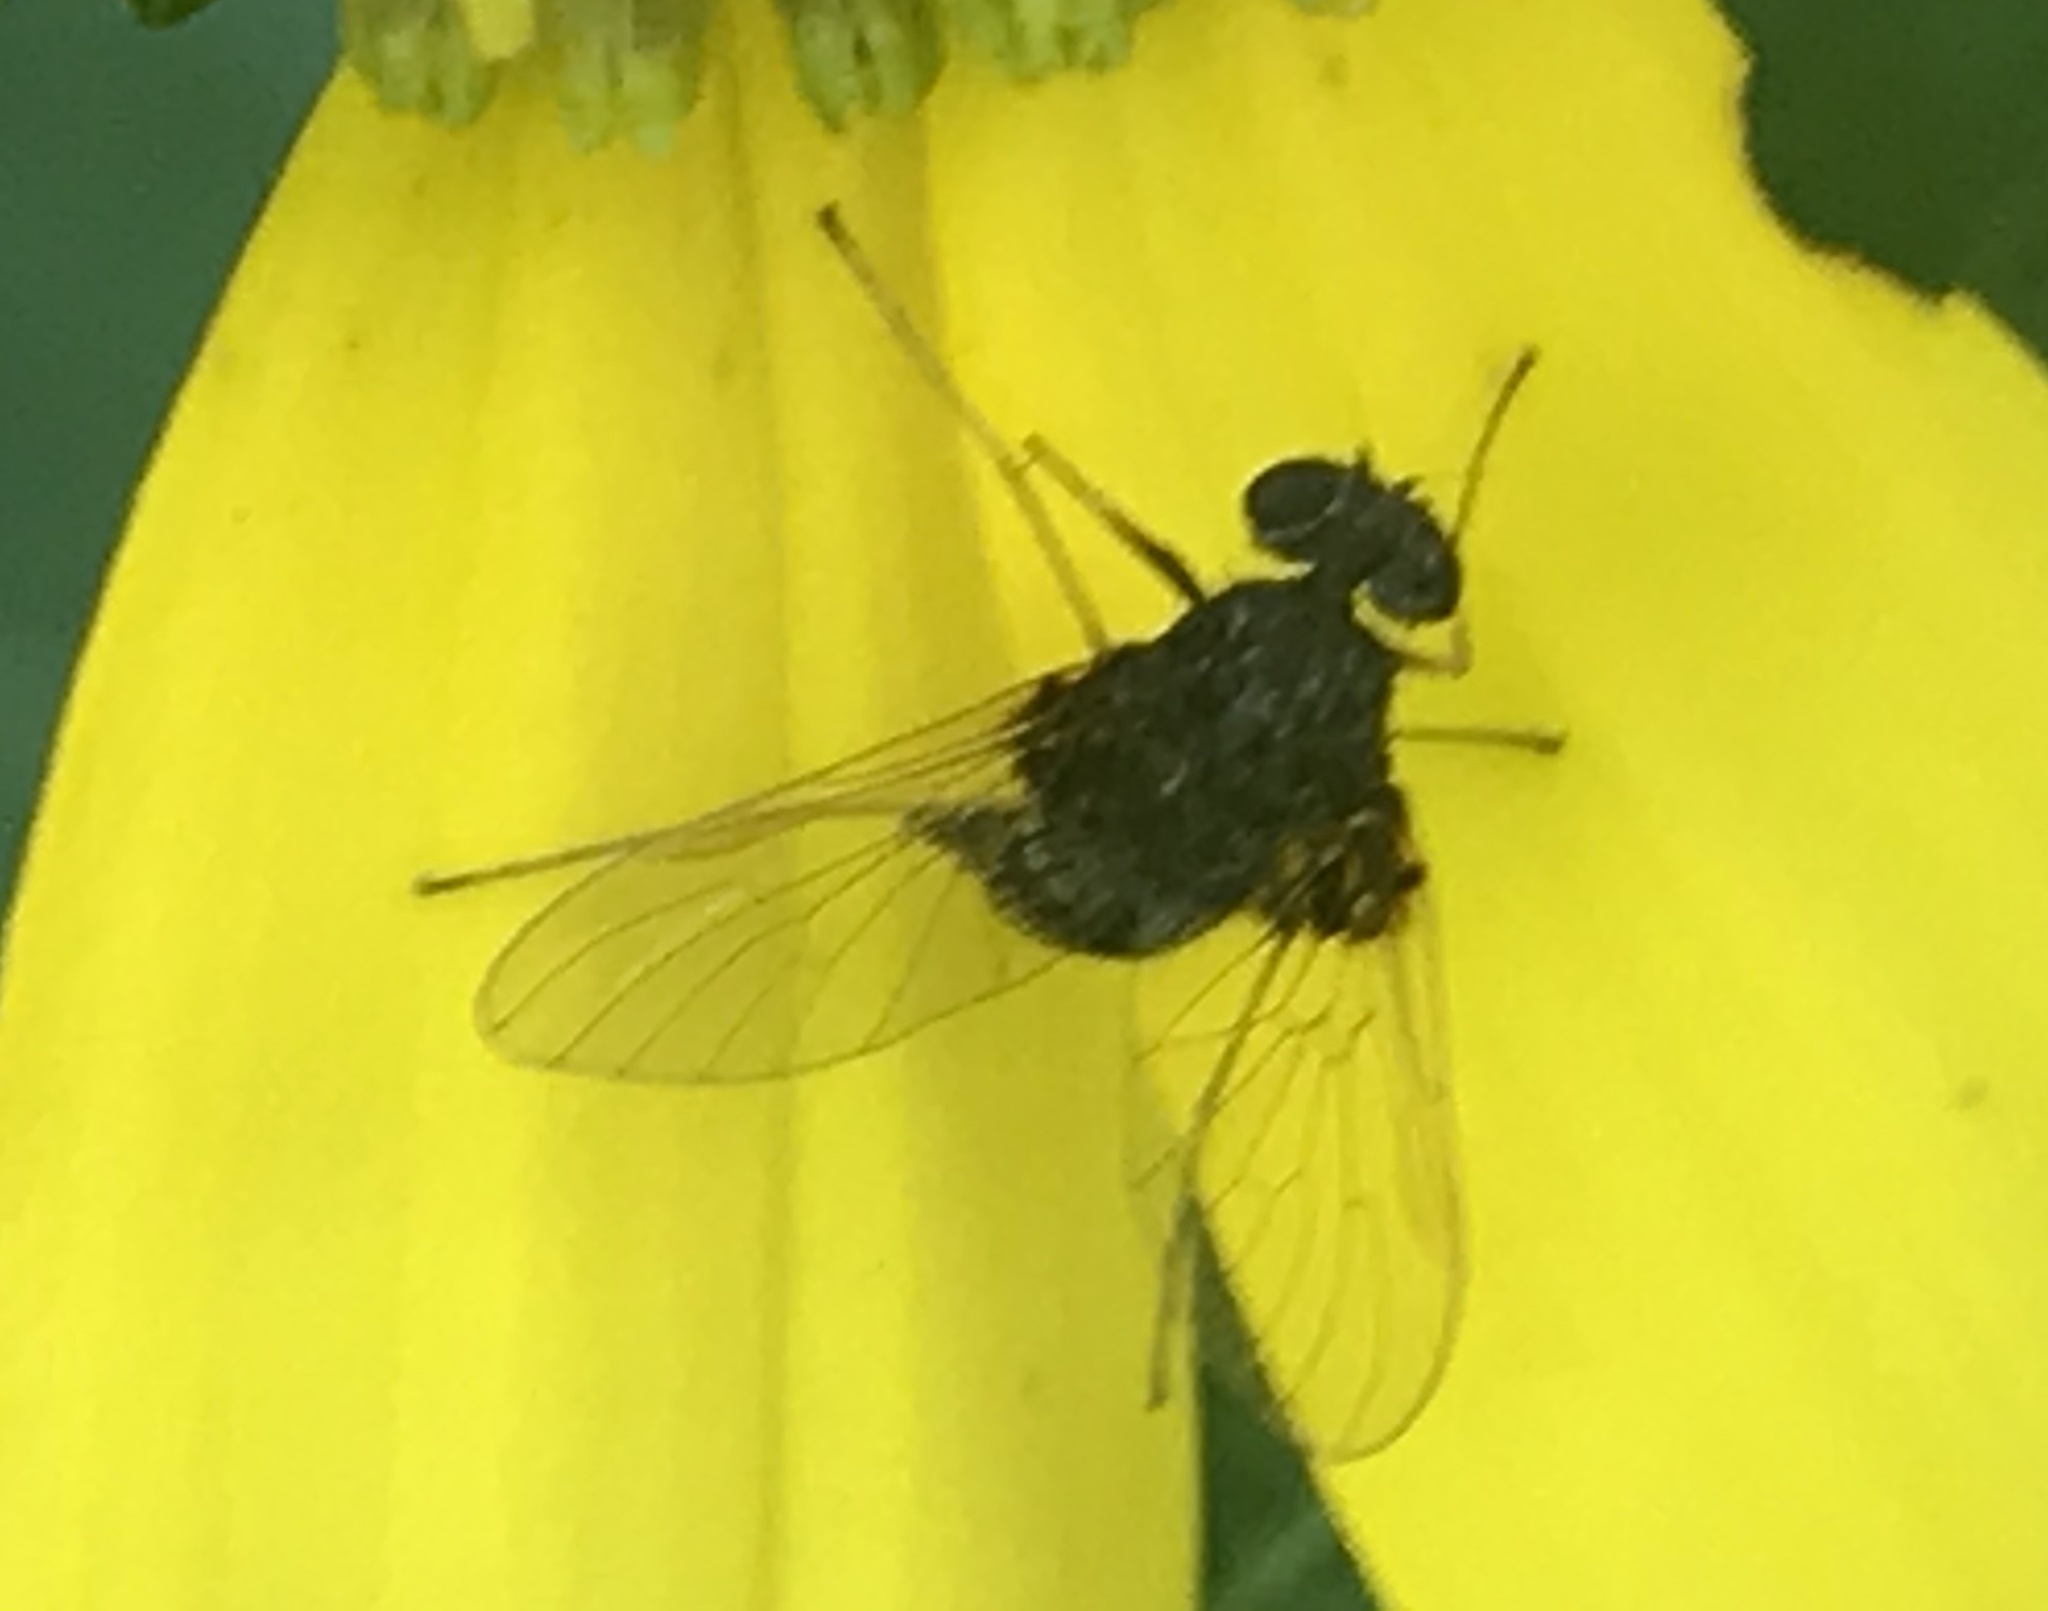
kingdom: Animalia
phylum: Arthropoda
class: Insecta
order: Diptera
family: Rhagionidae
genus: Chrysopilus
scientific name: Chrysopilus basilaris
